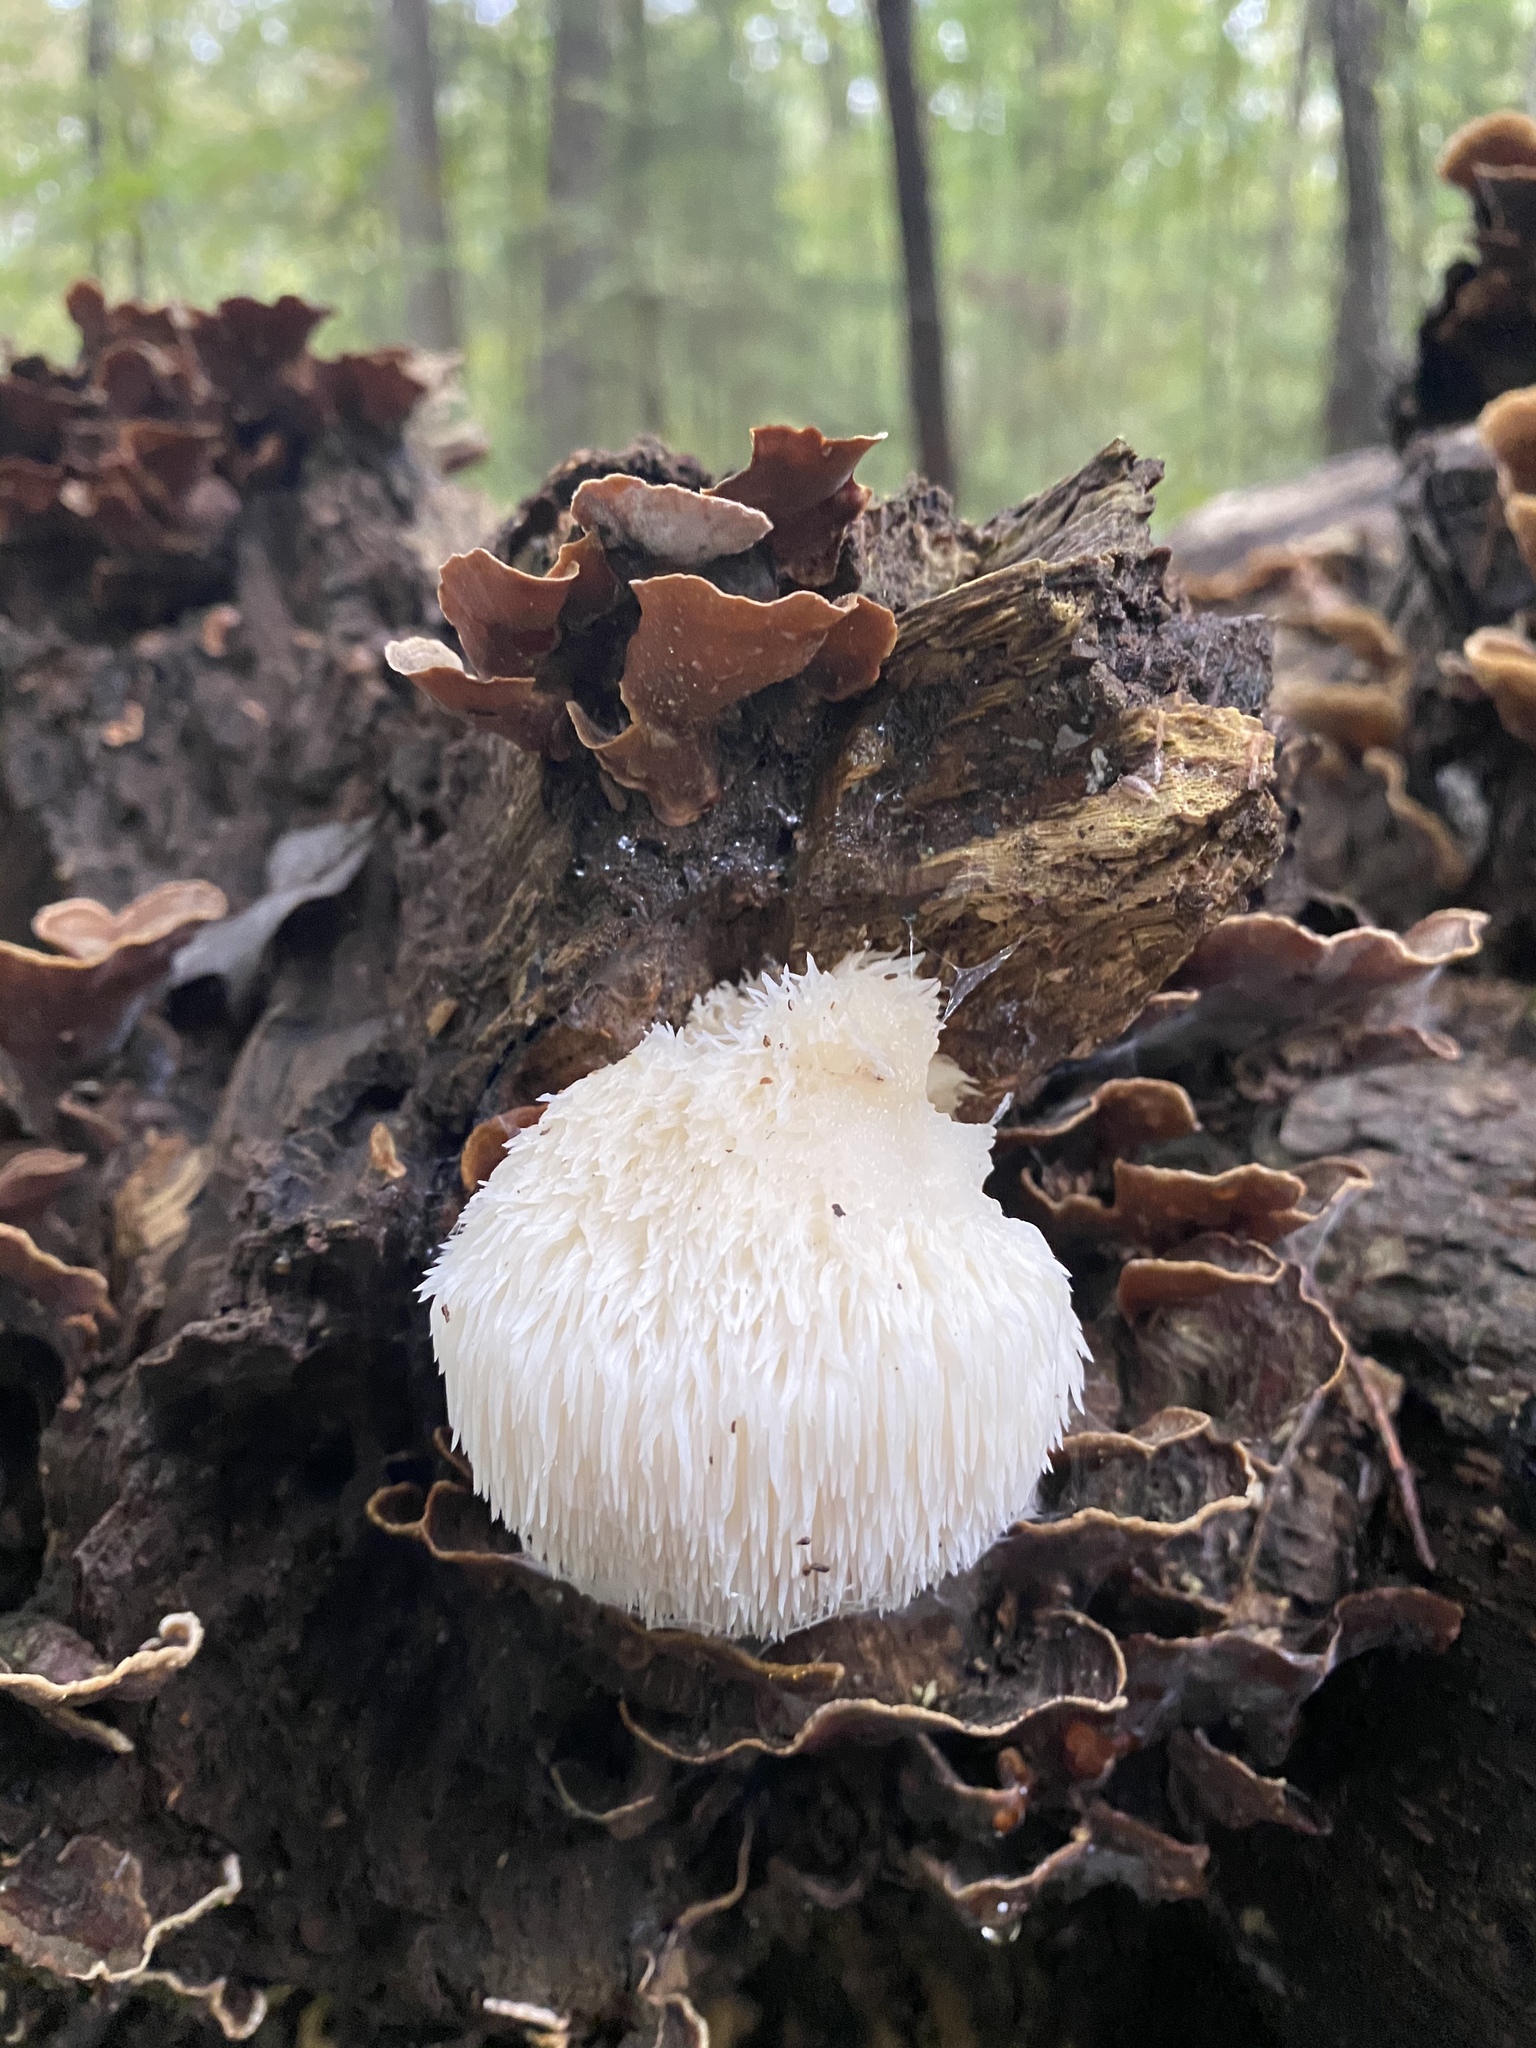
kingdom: Fungi
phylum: Basidiomycota
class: Agaricomycetes
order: Russulales
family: Hericiaceae
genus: Hericium
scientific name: Hericium erinaceus
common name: Bearded tooth
